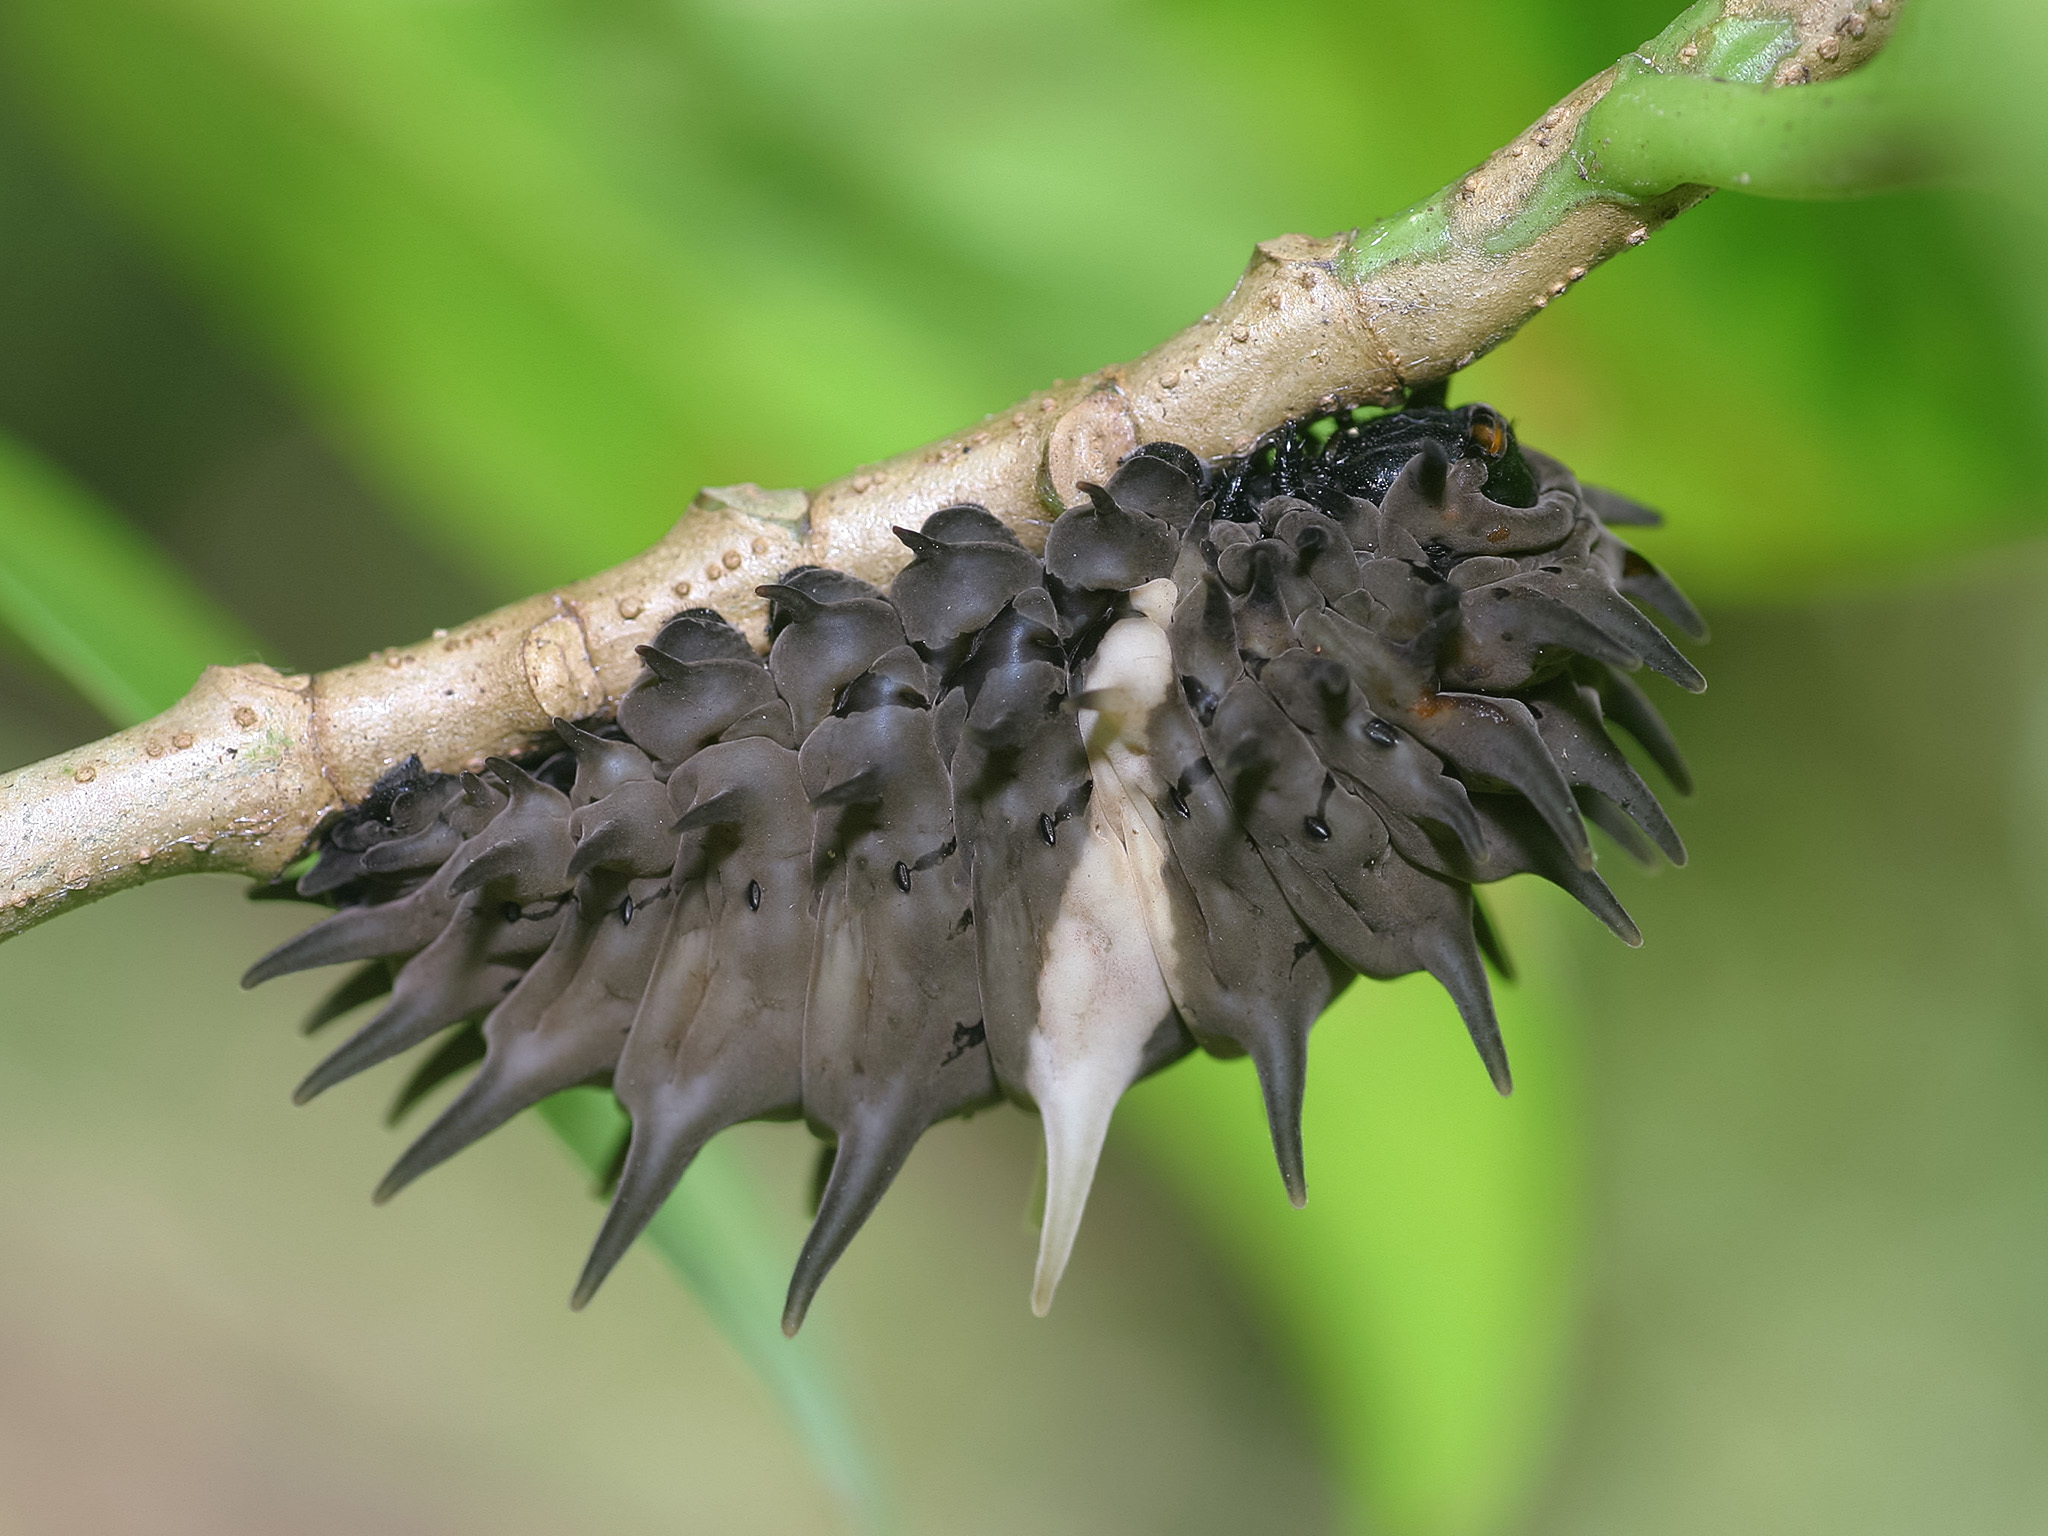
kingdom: Animalia
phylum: Arthropoda
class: Insecta
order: Lepidoptera
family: Papilionidae
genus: Troides
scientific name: Troides helena
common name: Common birdwing
